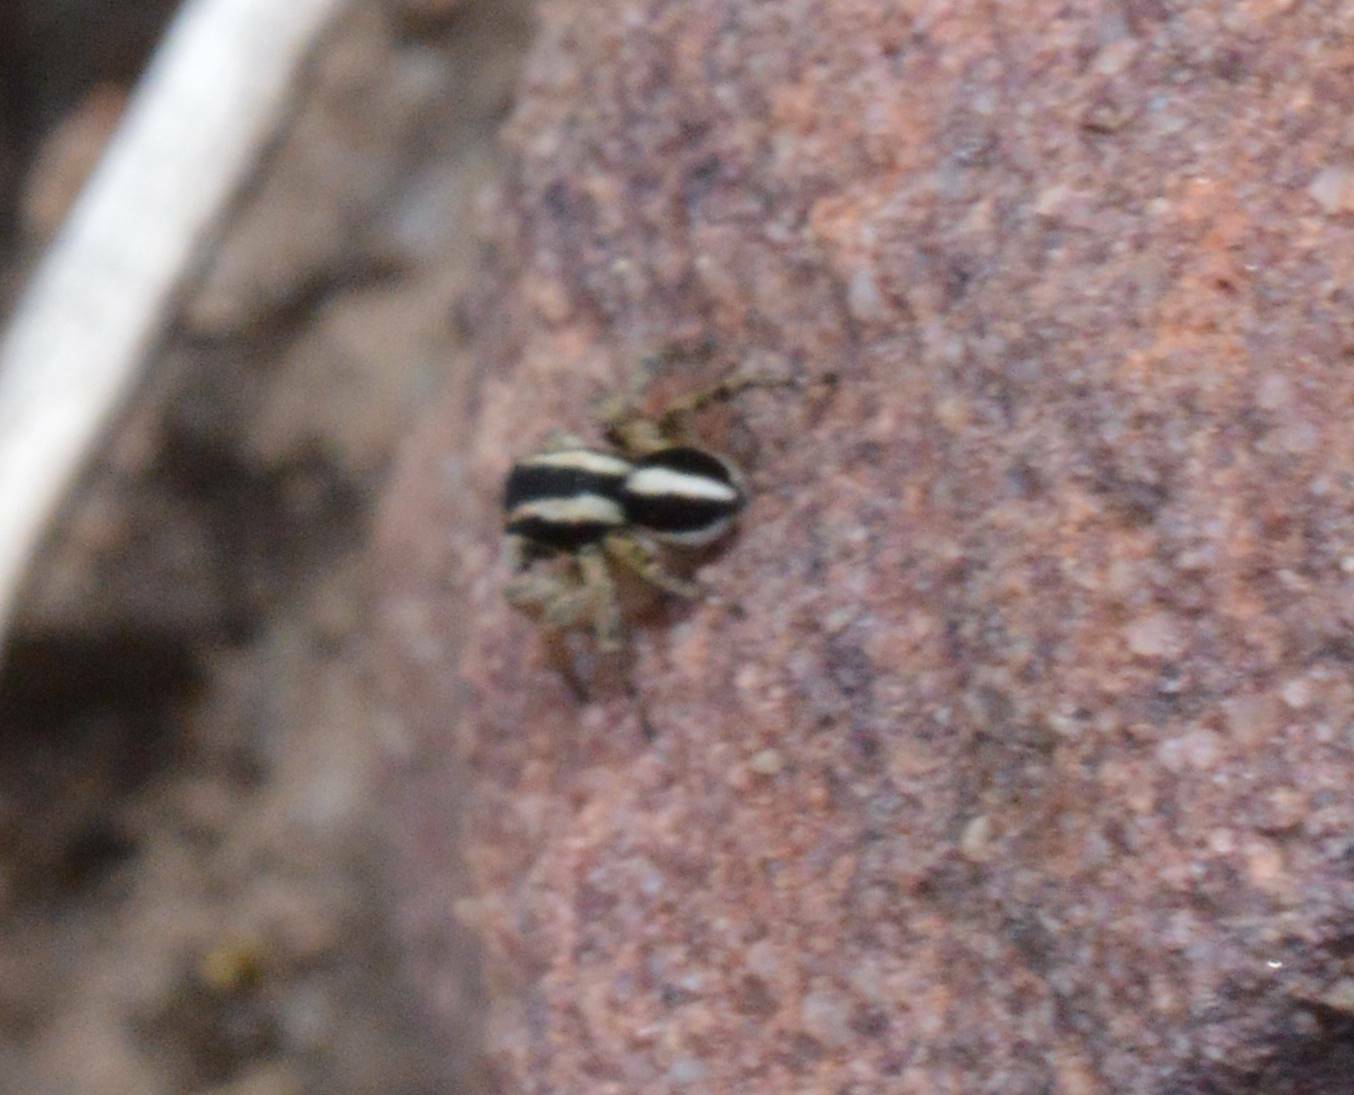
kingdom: Animalia
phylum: Arthropoda
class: Arachnida
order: Araneae
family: Salticidae
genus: Aelurillus
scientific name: Aelurillus luctuosus
